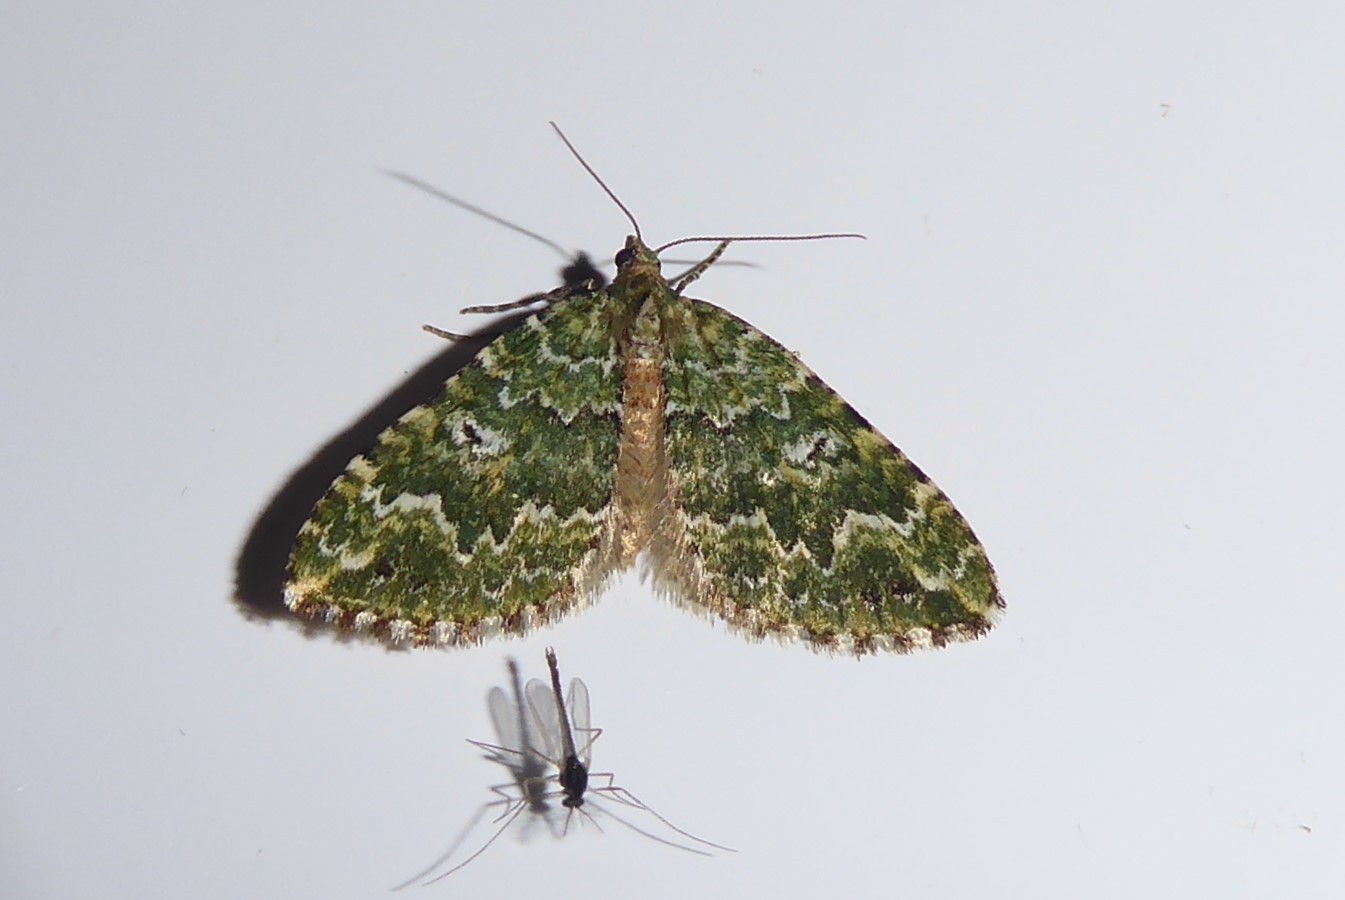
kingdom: Animalia
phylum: Arthropoda
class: Insecta
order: Lepidoptera
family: Geometridae
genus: Asaphodes
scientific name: Asaphodes beata
